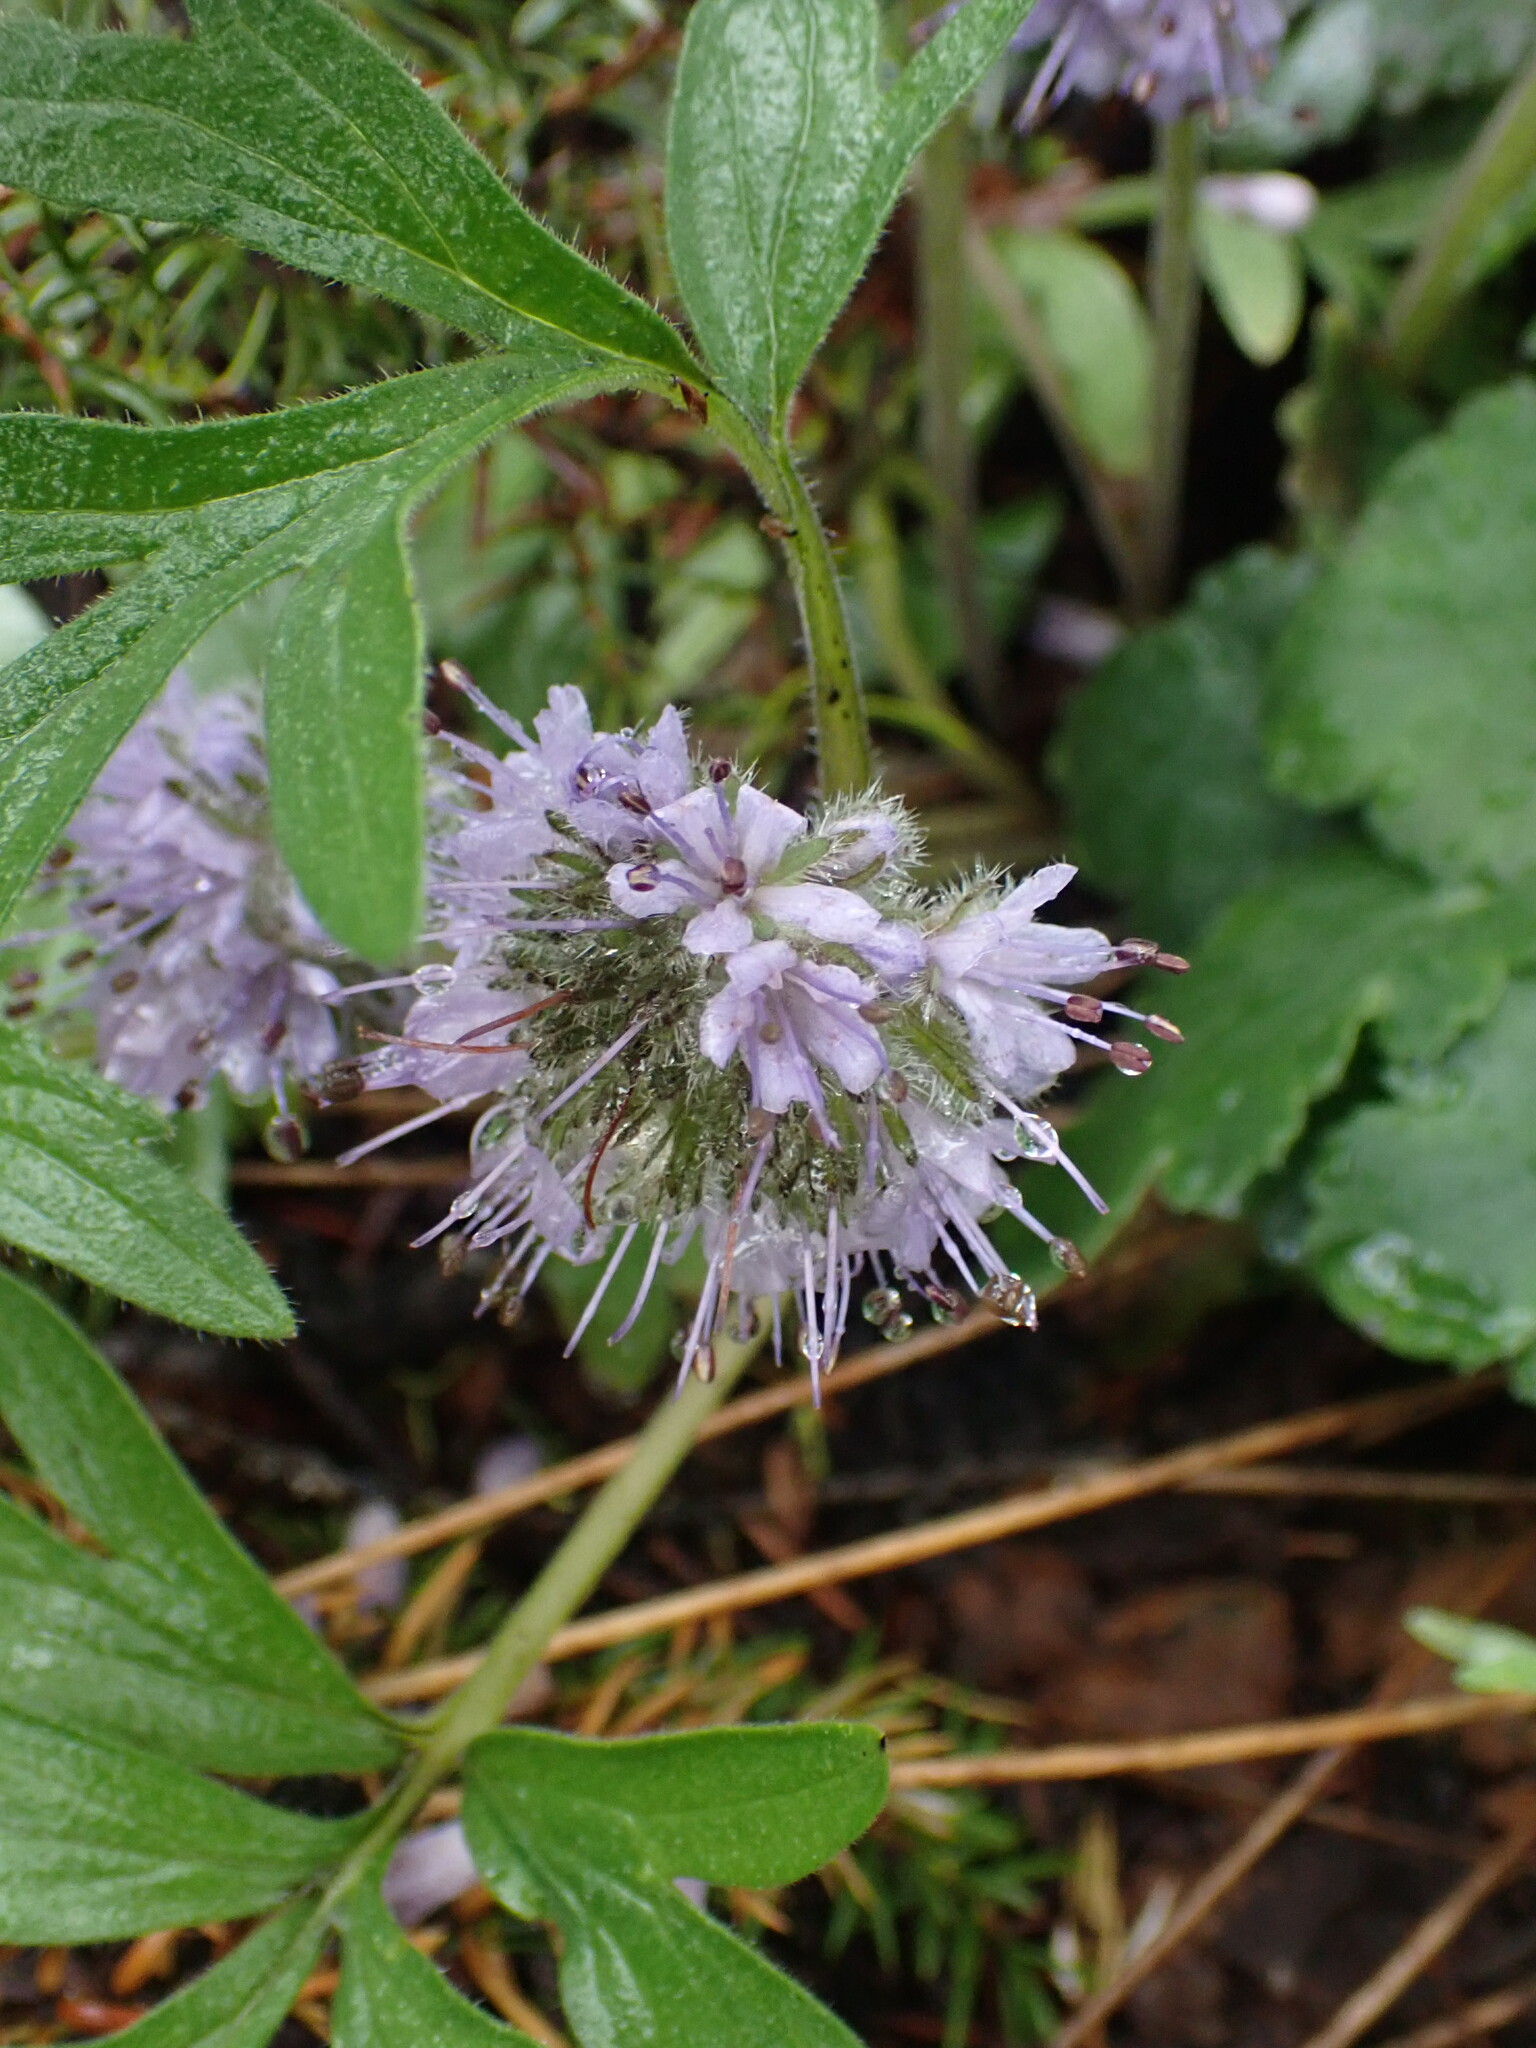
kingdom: Plantae
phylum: Tracheophyta
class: Magnoliopsida
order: Boraginales
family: Hydrophyllaceae
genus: Hydrophyllum
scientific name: Hydrophyllum capitatum
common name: Woollen-breeches
